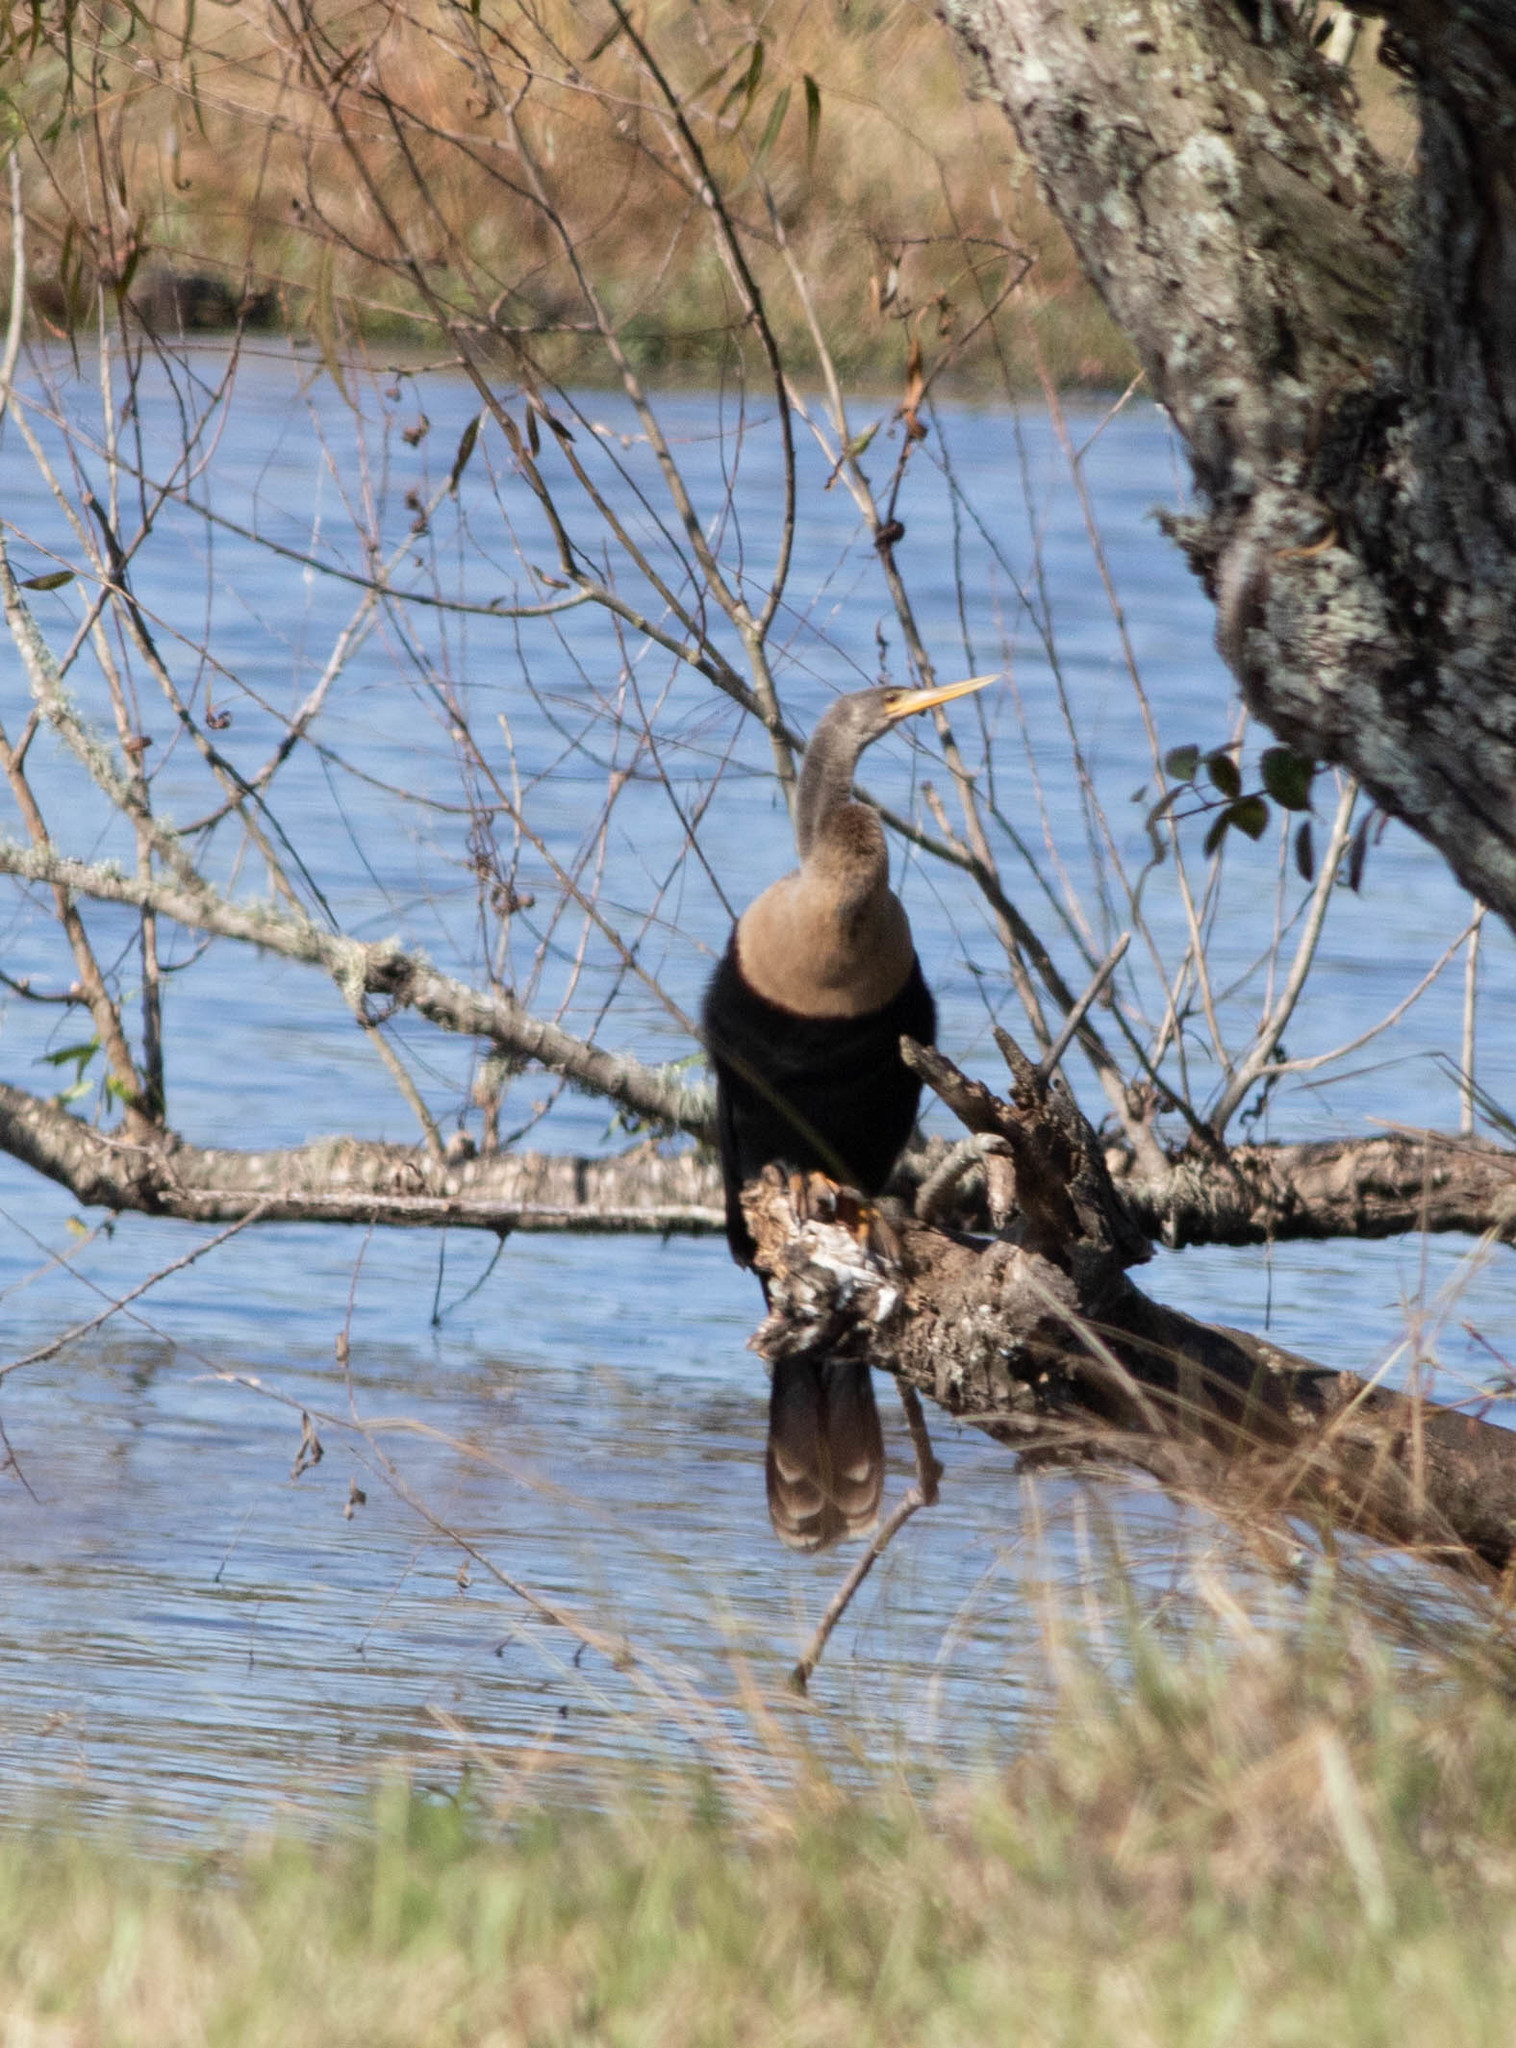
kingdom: Animalia
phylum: Chordata
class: Aves
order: Suliformes
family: Anhingidae
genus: Anhinga
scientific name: Anhinga anhinga
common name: Anhinga
